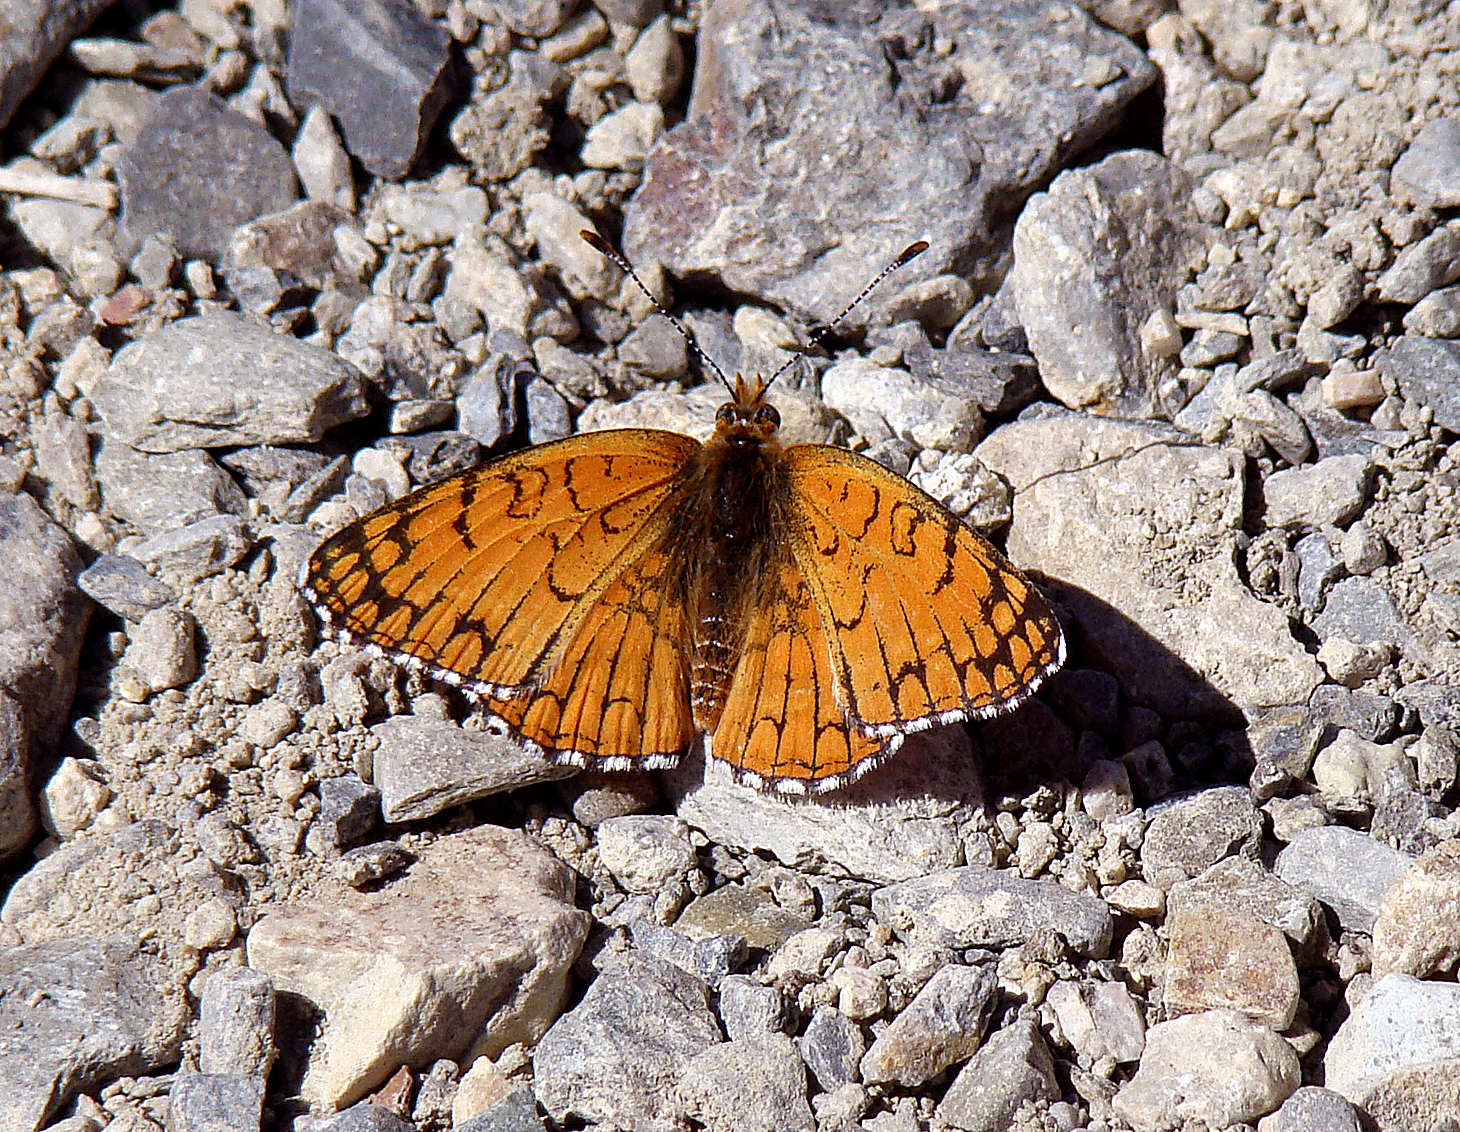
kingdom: Animalia
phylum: Arthropoda
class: Insecta
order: Lepidoptera
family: Nymphalidae
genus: Chlosyne
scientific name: Chlosyne acastus
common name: Sagebrush checkerspot
